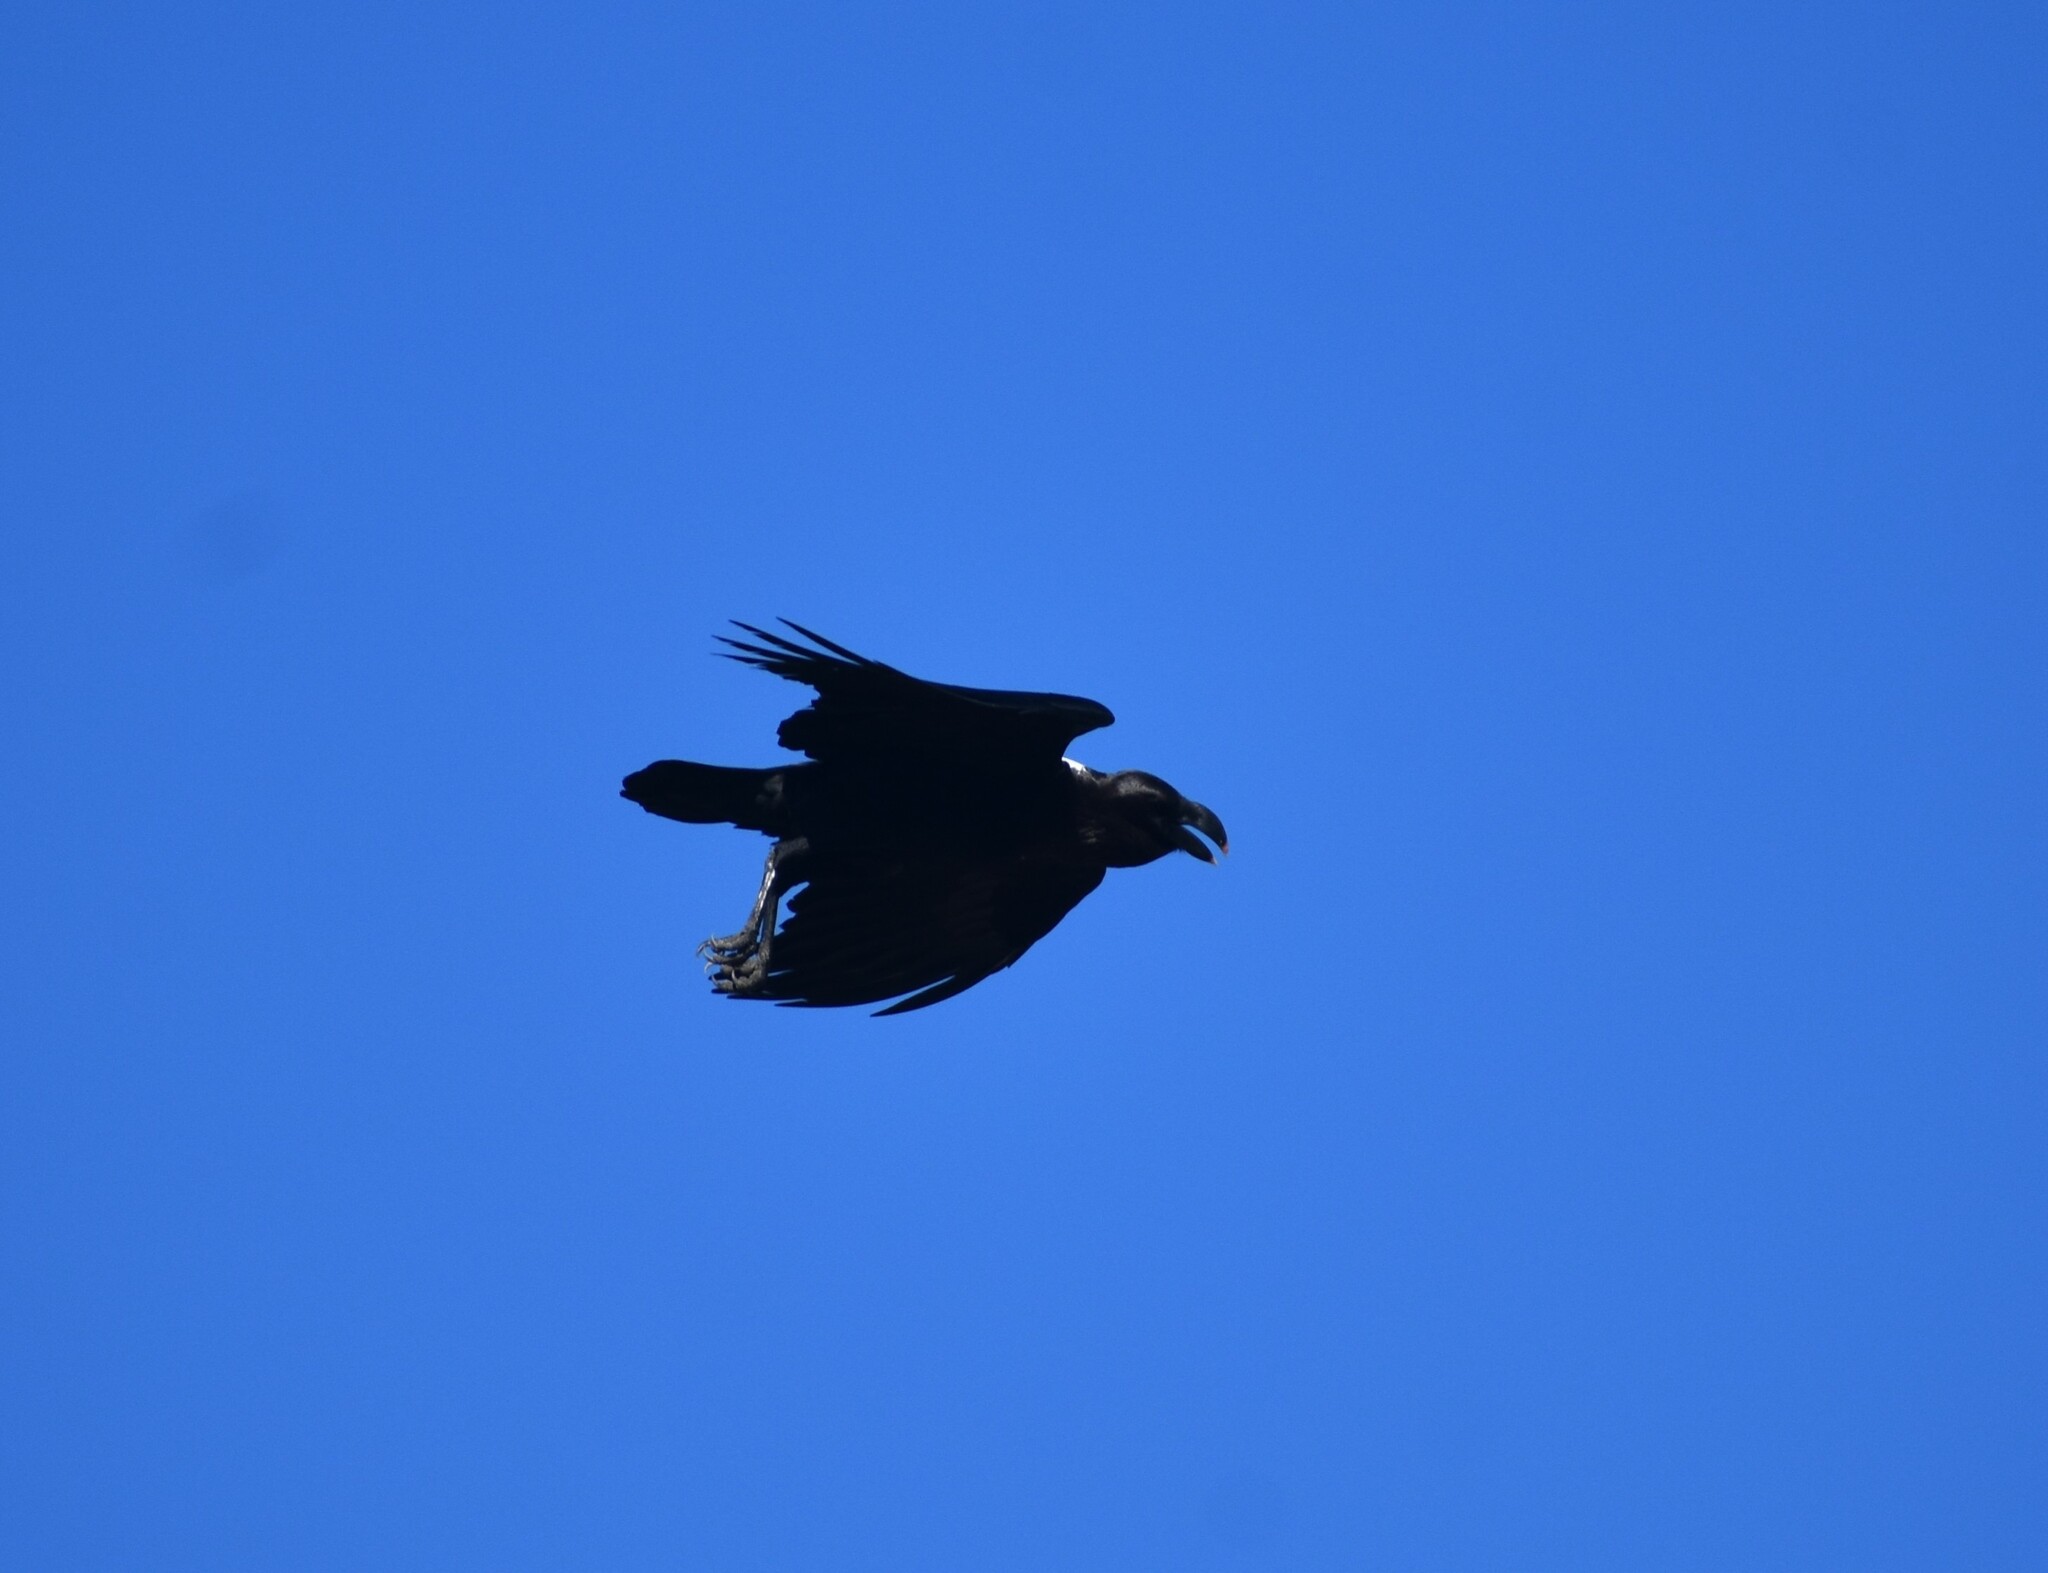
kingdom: Animalia
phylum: Chordata
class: Aves
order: Passeriformes
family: Corvidae
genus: Corvus
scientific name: Corvus albicollis
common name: White-necked raven
